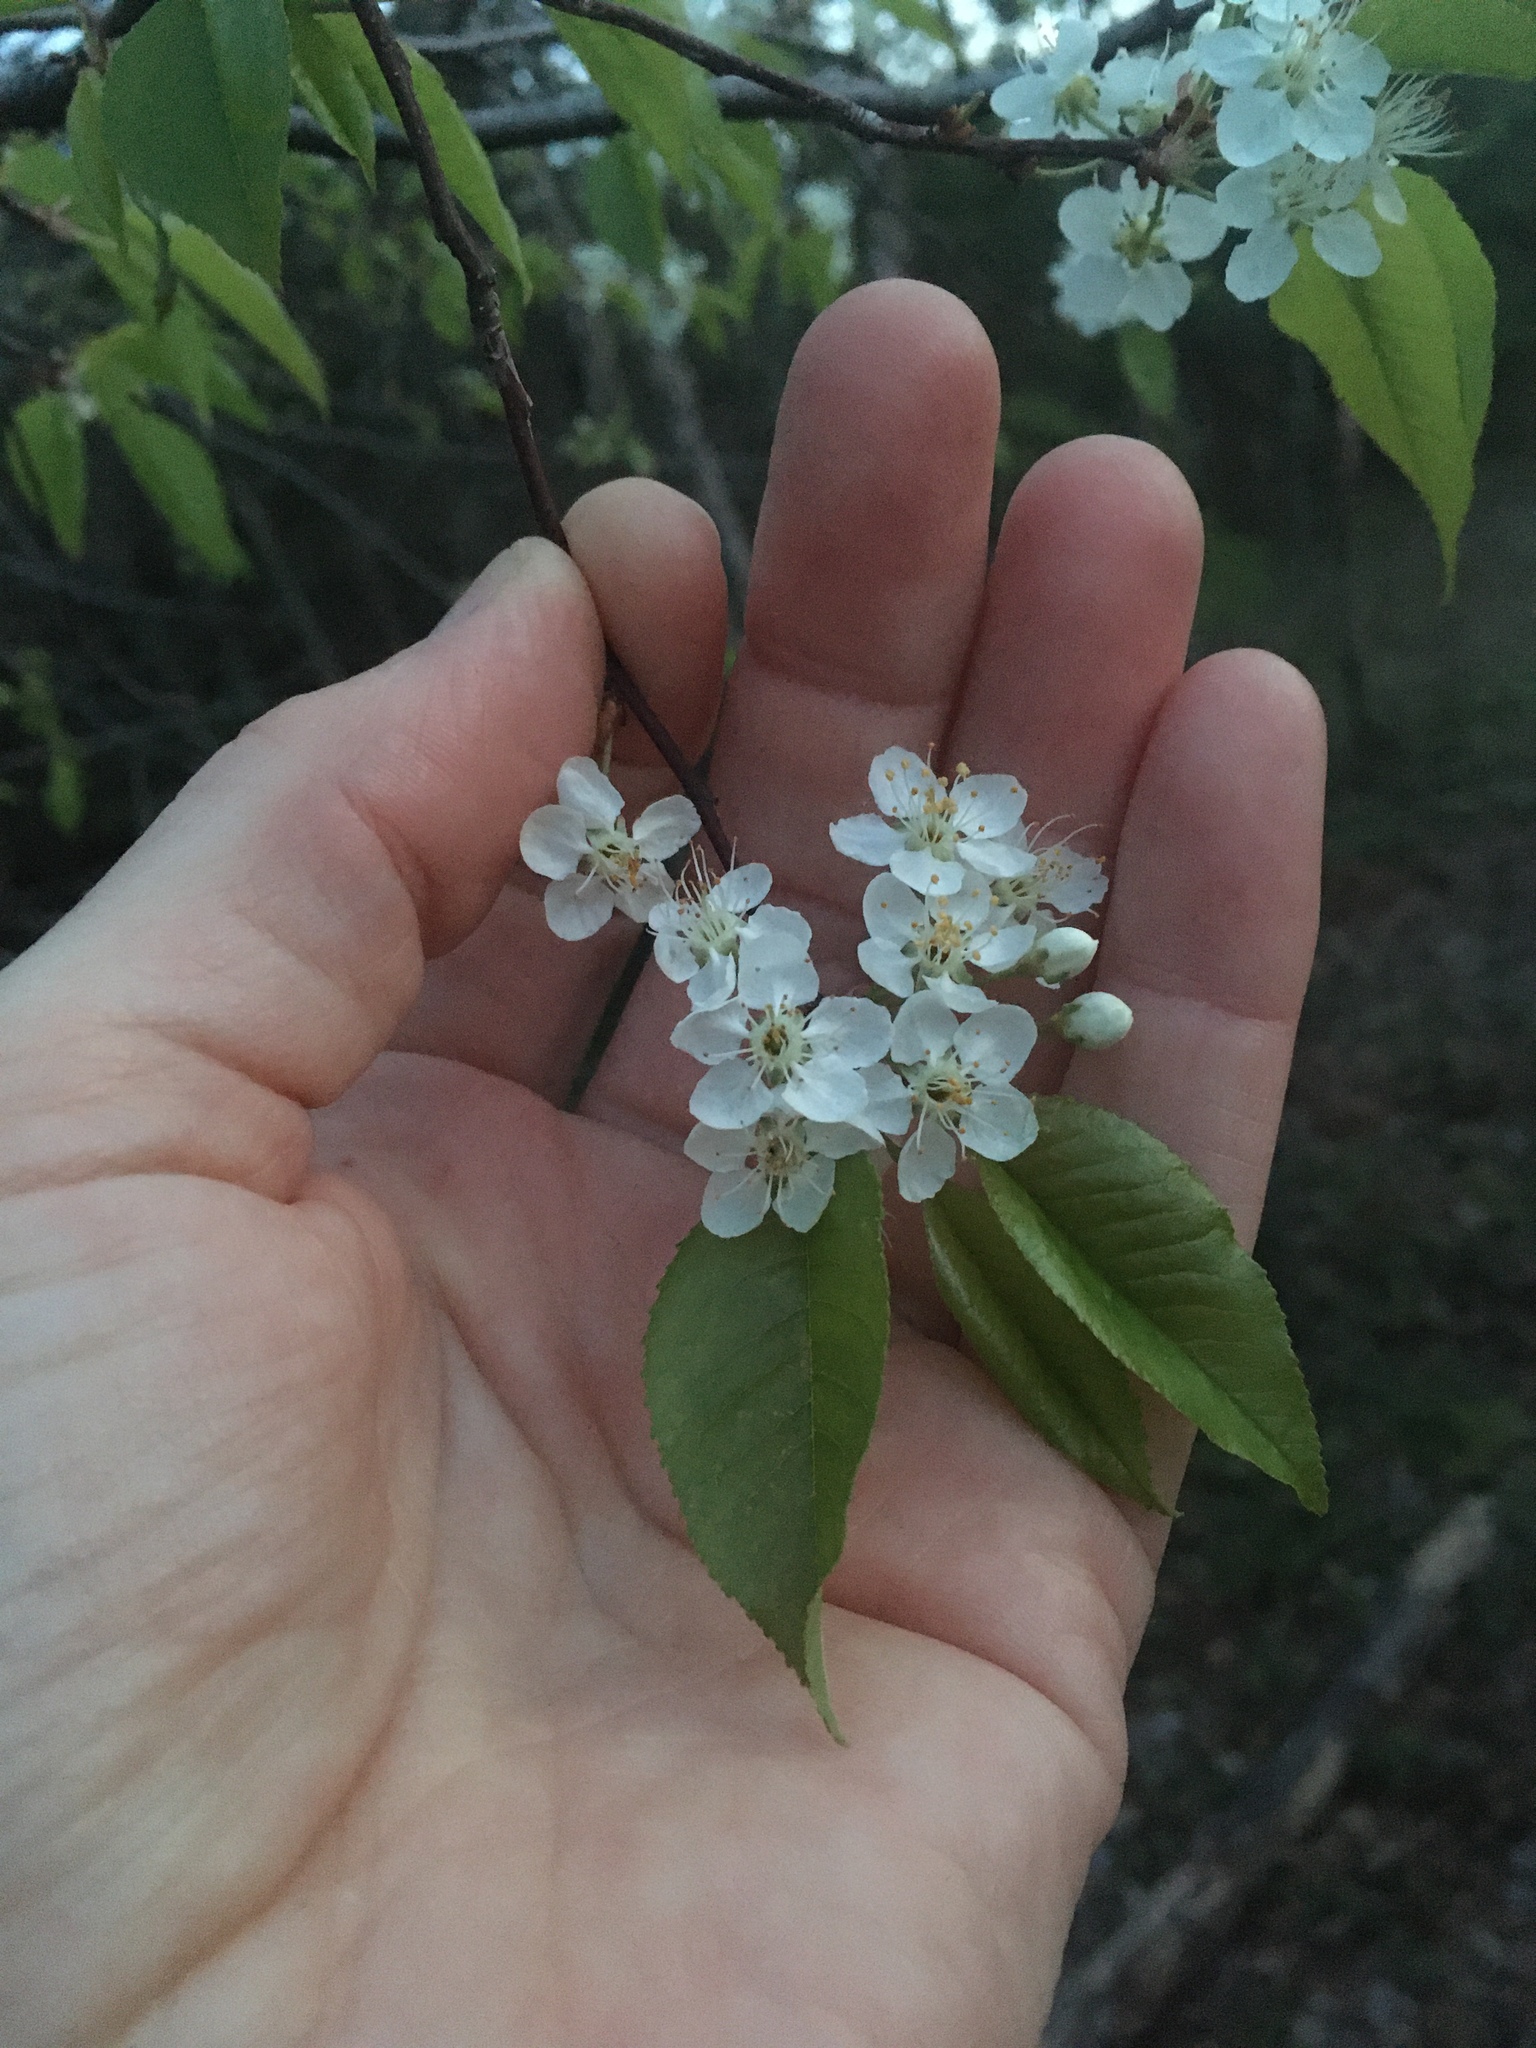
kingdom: Plantae
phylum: Tracheophyta
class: Magnoliopsida
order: Rosales
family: Rosaceae
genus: Prunus
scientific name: Prunus pensylvanica
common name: Pin cherry
